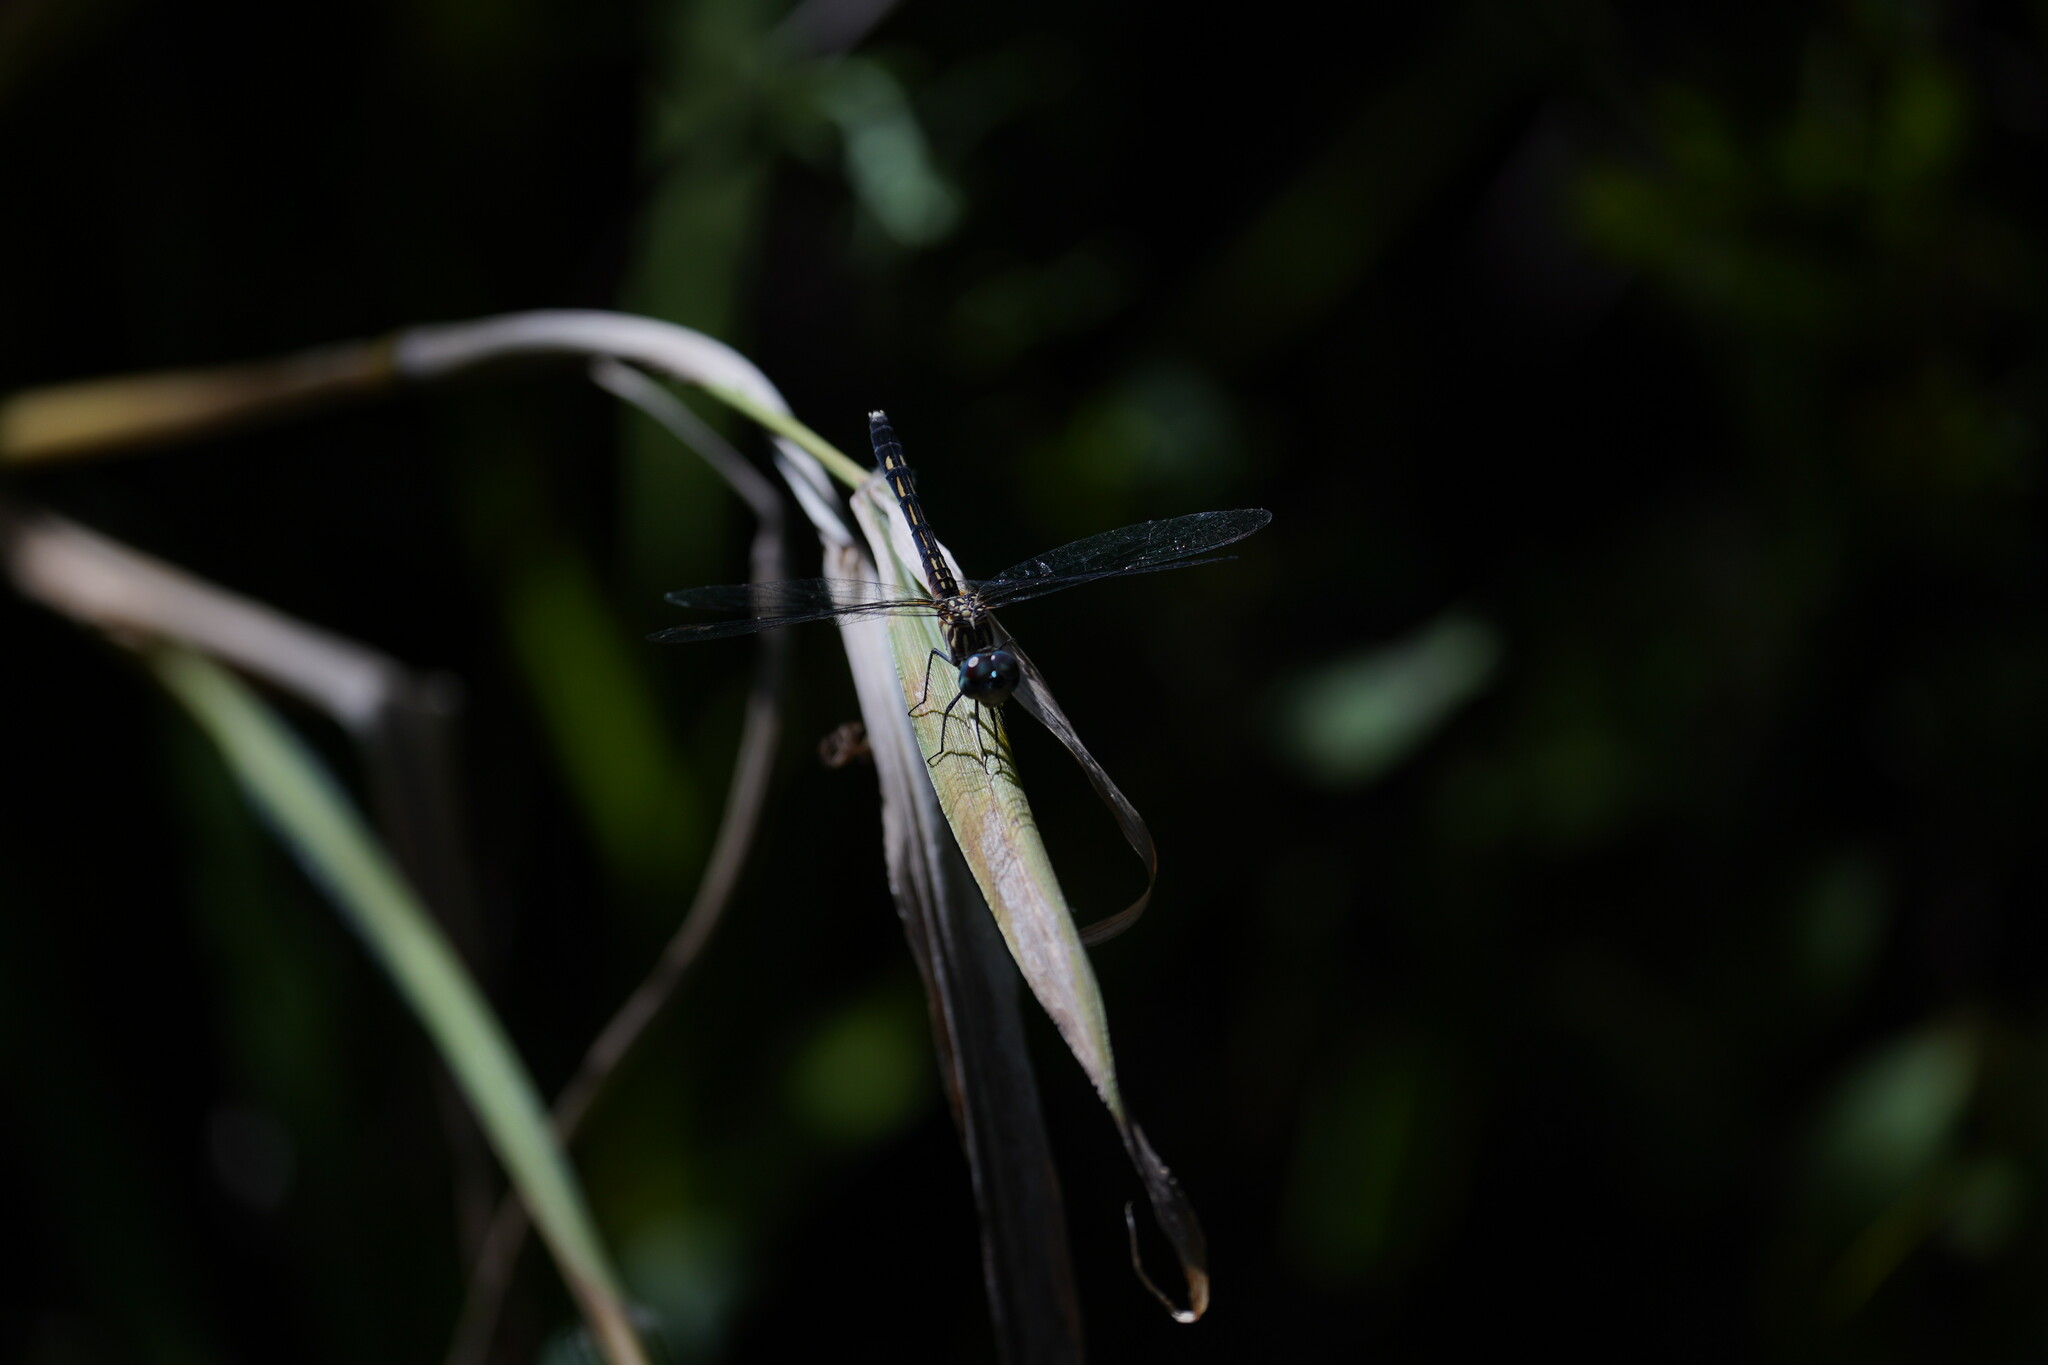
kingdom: Animalia
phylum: Arthropoda
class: Insecta
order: Odonata
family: Libellulidae
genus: Erythrodiplax
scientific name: Erythrodiplax minuscula
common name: Little blue dragonlet
